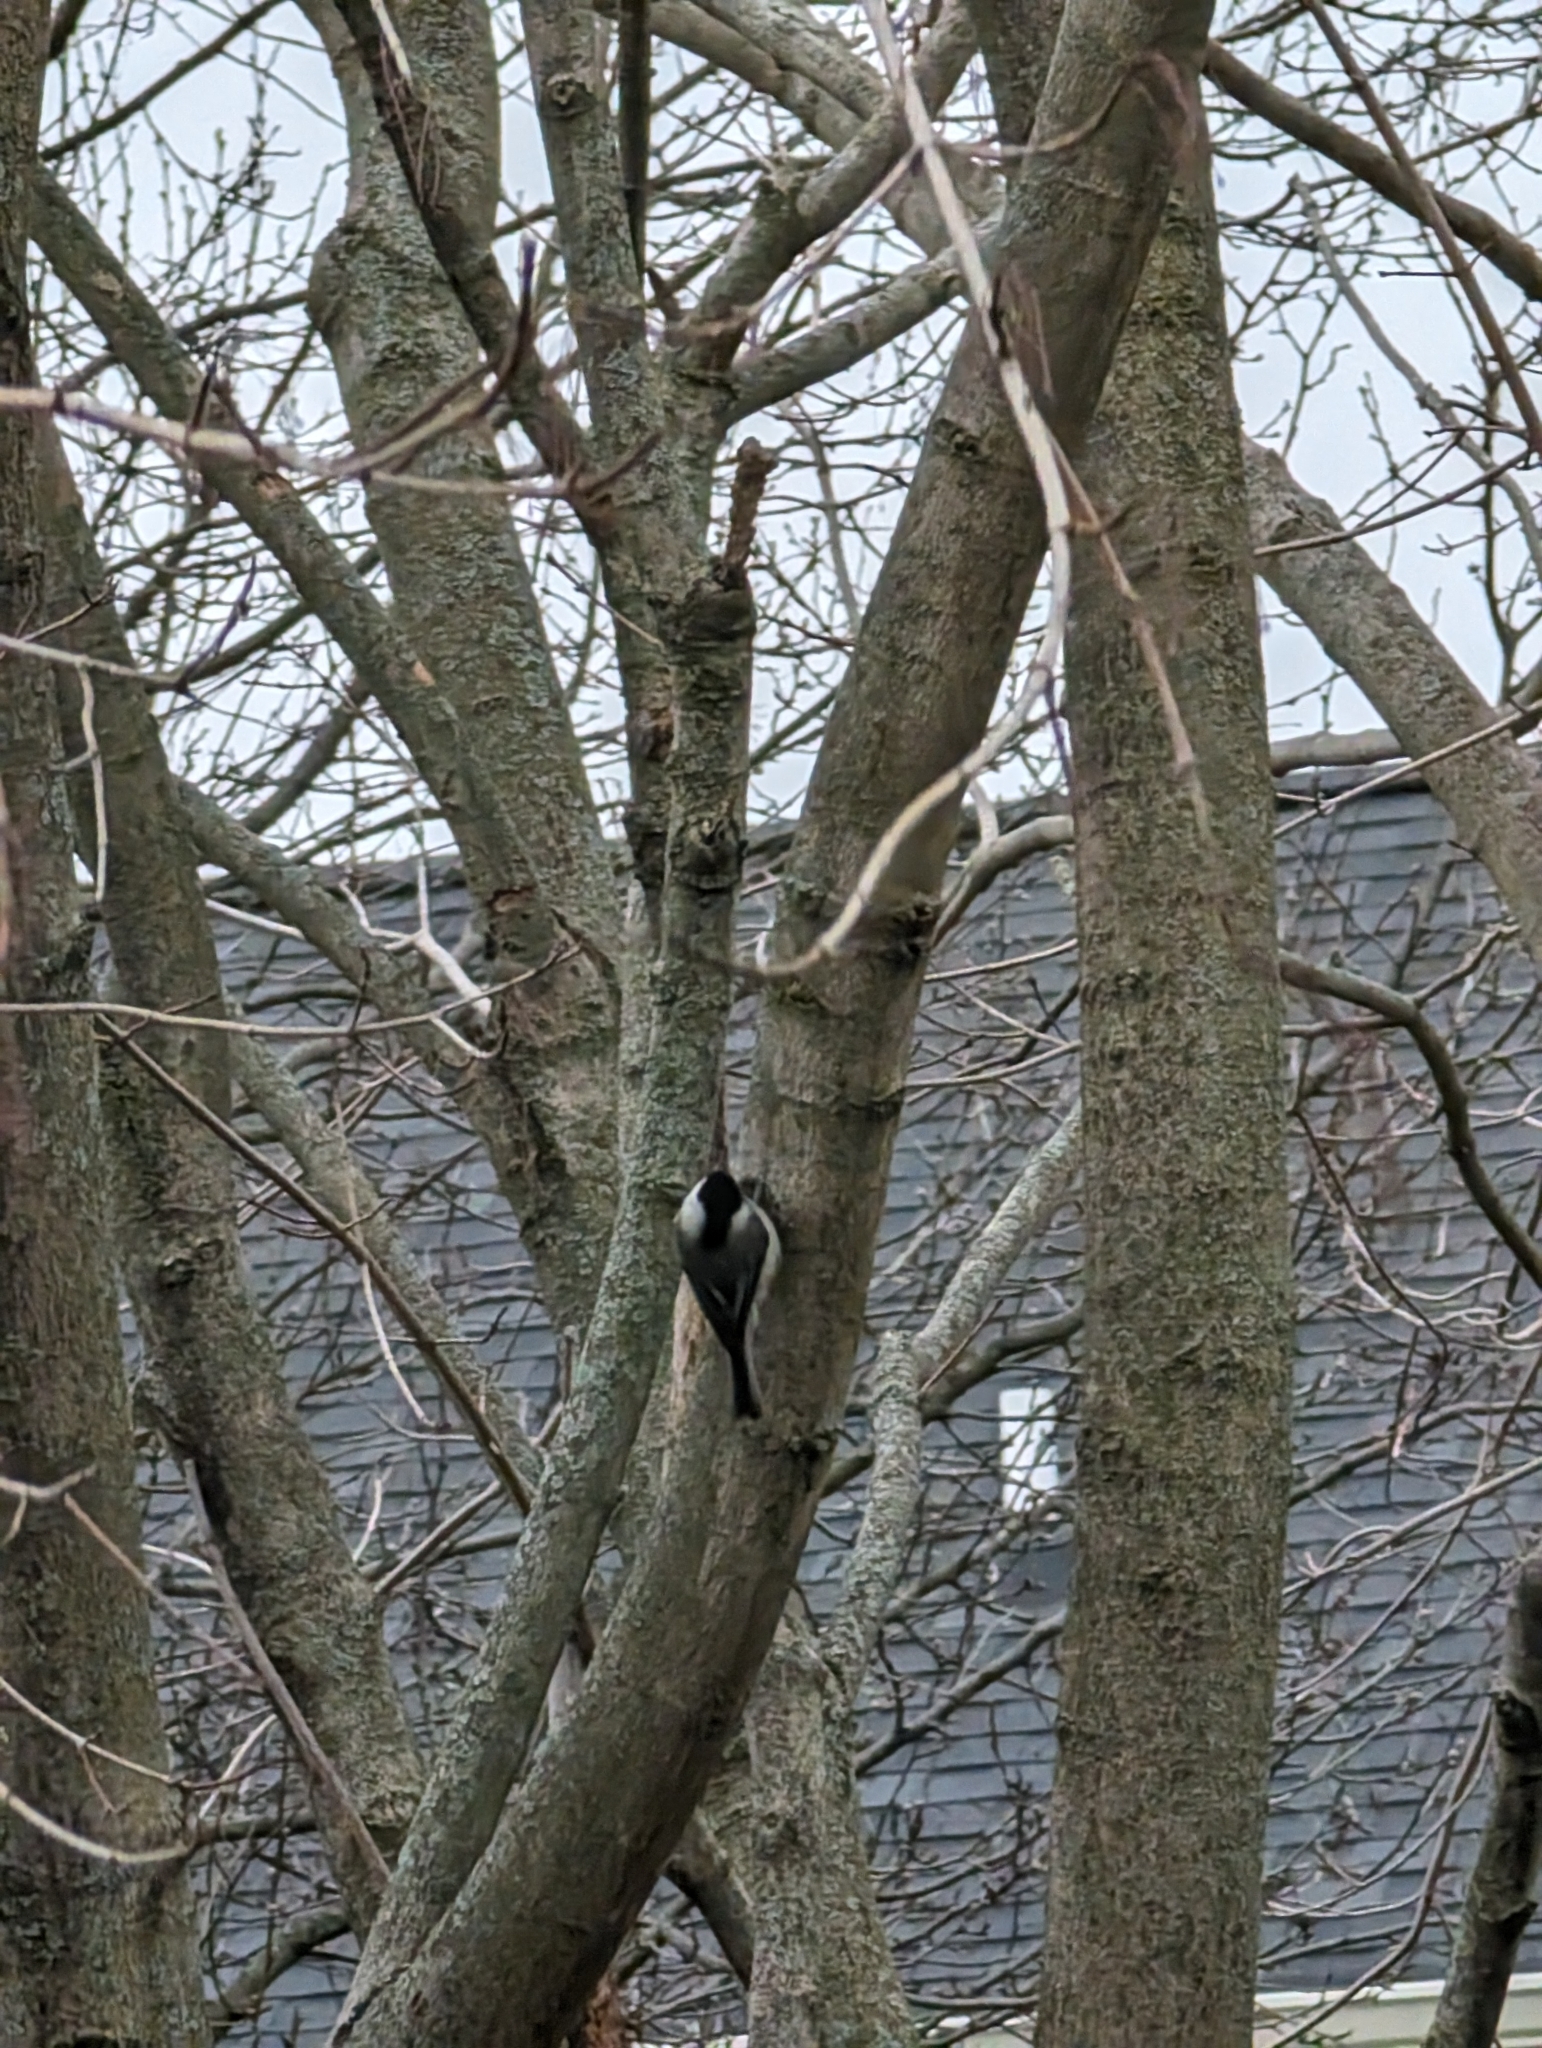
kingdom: Animalia
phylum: Chordata
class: Aves
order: Passeriformes
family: Paridae
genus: Poecile
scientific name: Poecile carolinensis
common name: Carolina chickadee
